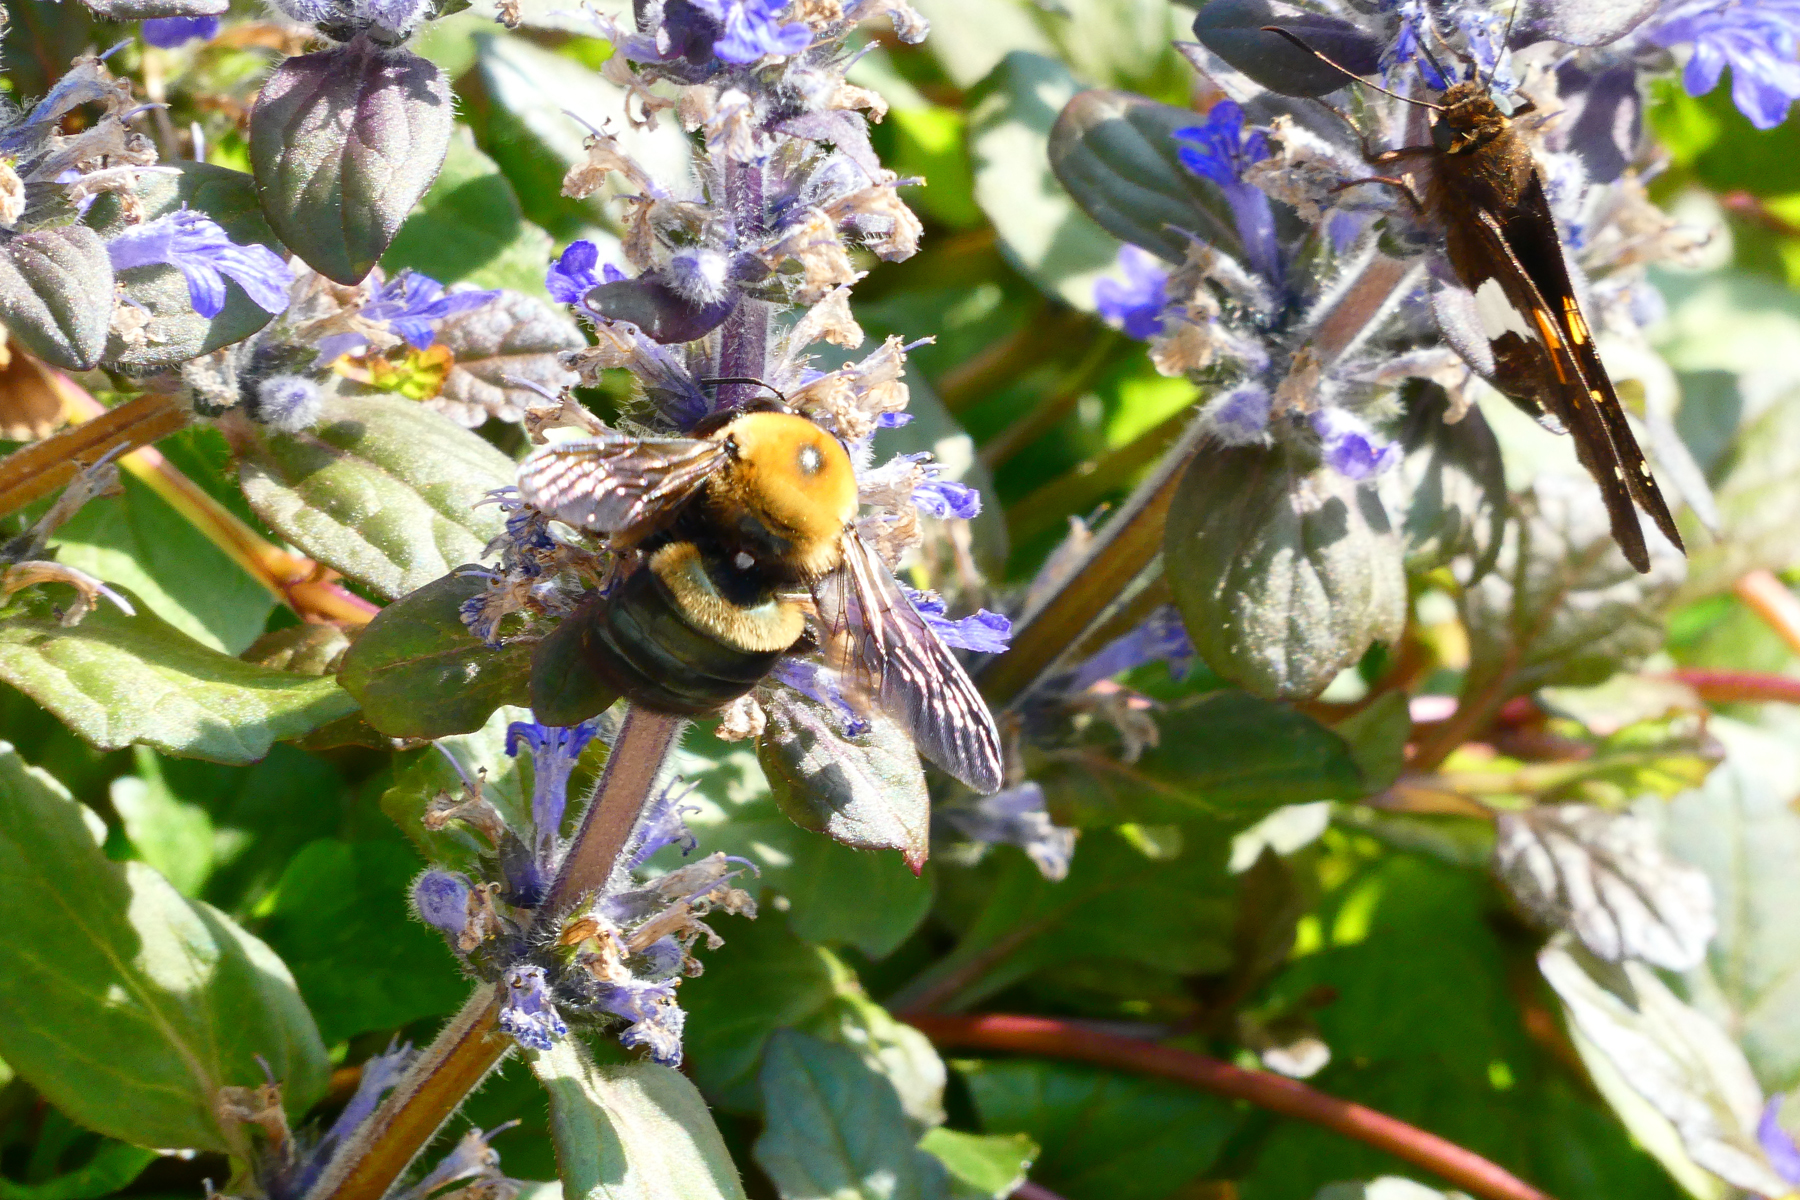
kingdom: Animalia
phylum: Arthropoda
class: Insecta
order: Hymenoptera
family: Apidae
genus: Xylocopa
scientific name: Xylocopa virginica
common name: Carpenter bee
